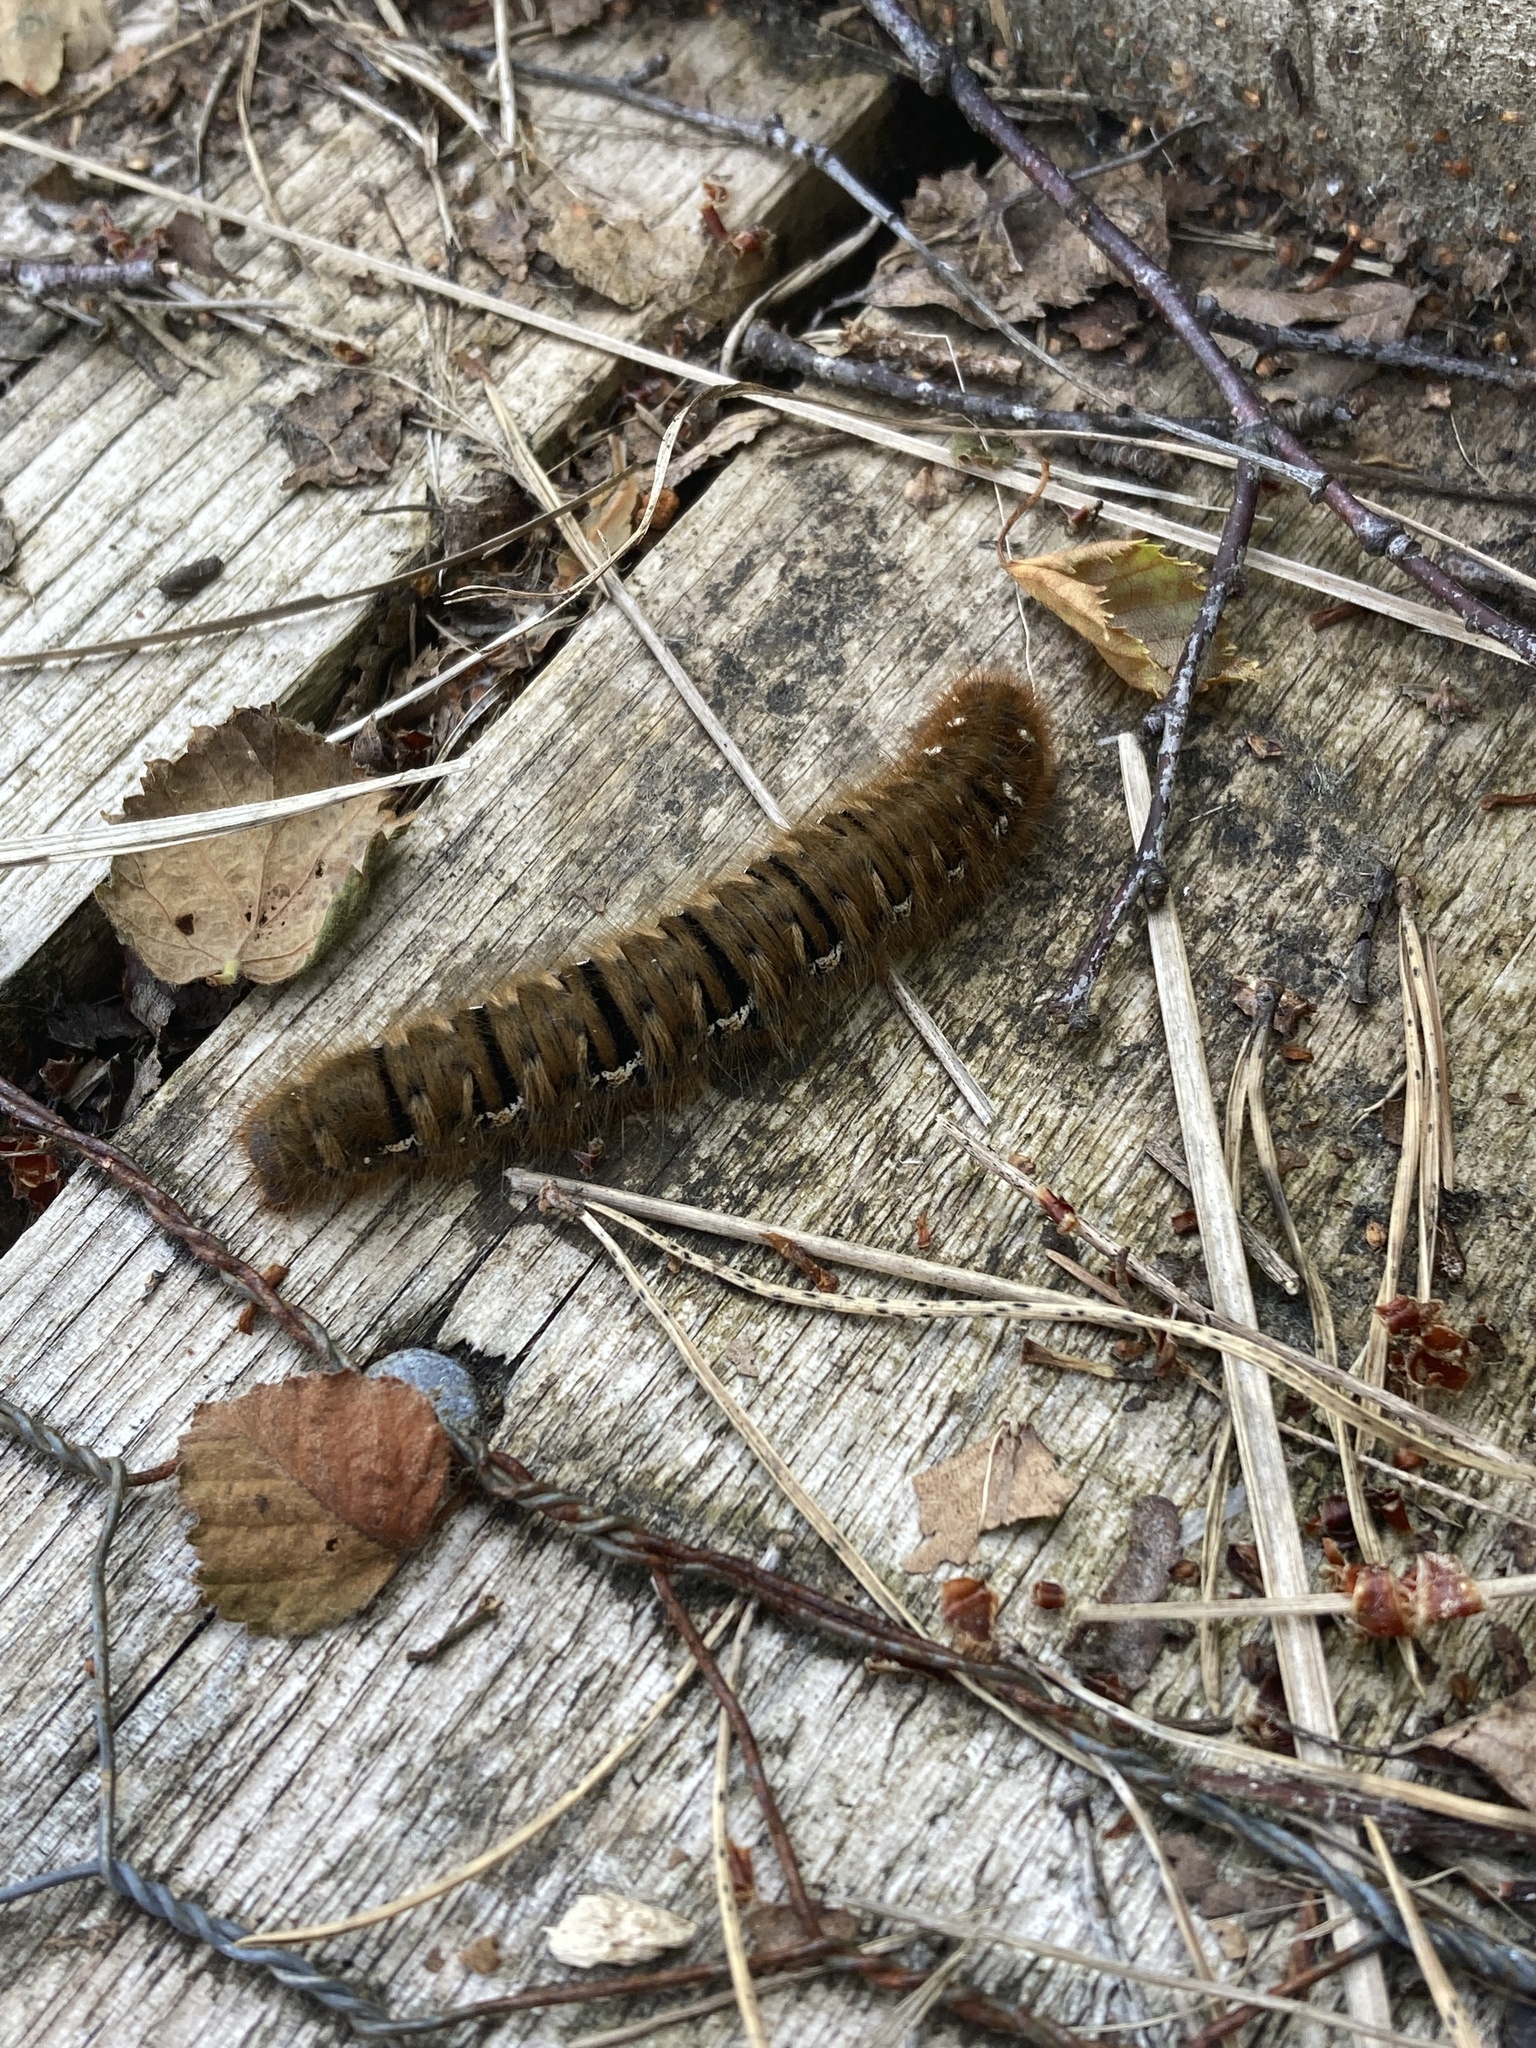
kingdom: Animalia
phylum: Arthropoda
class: Insecta
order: Lepidoptera
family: Lasiocampidae
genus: Lasiocampa
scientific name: Lasiocampa quercus
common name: Oak eggar
